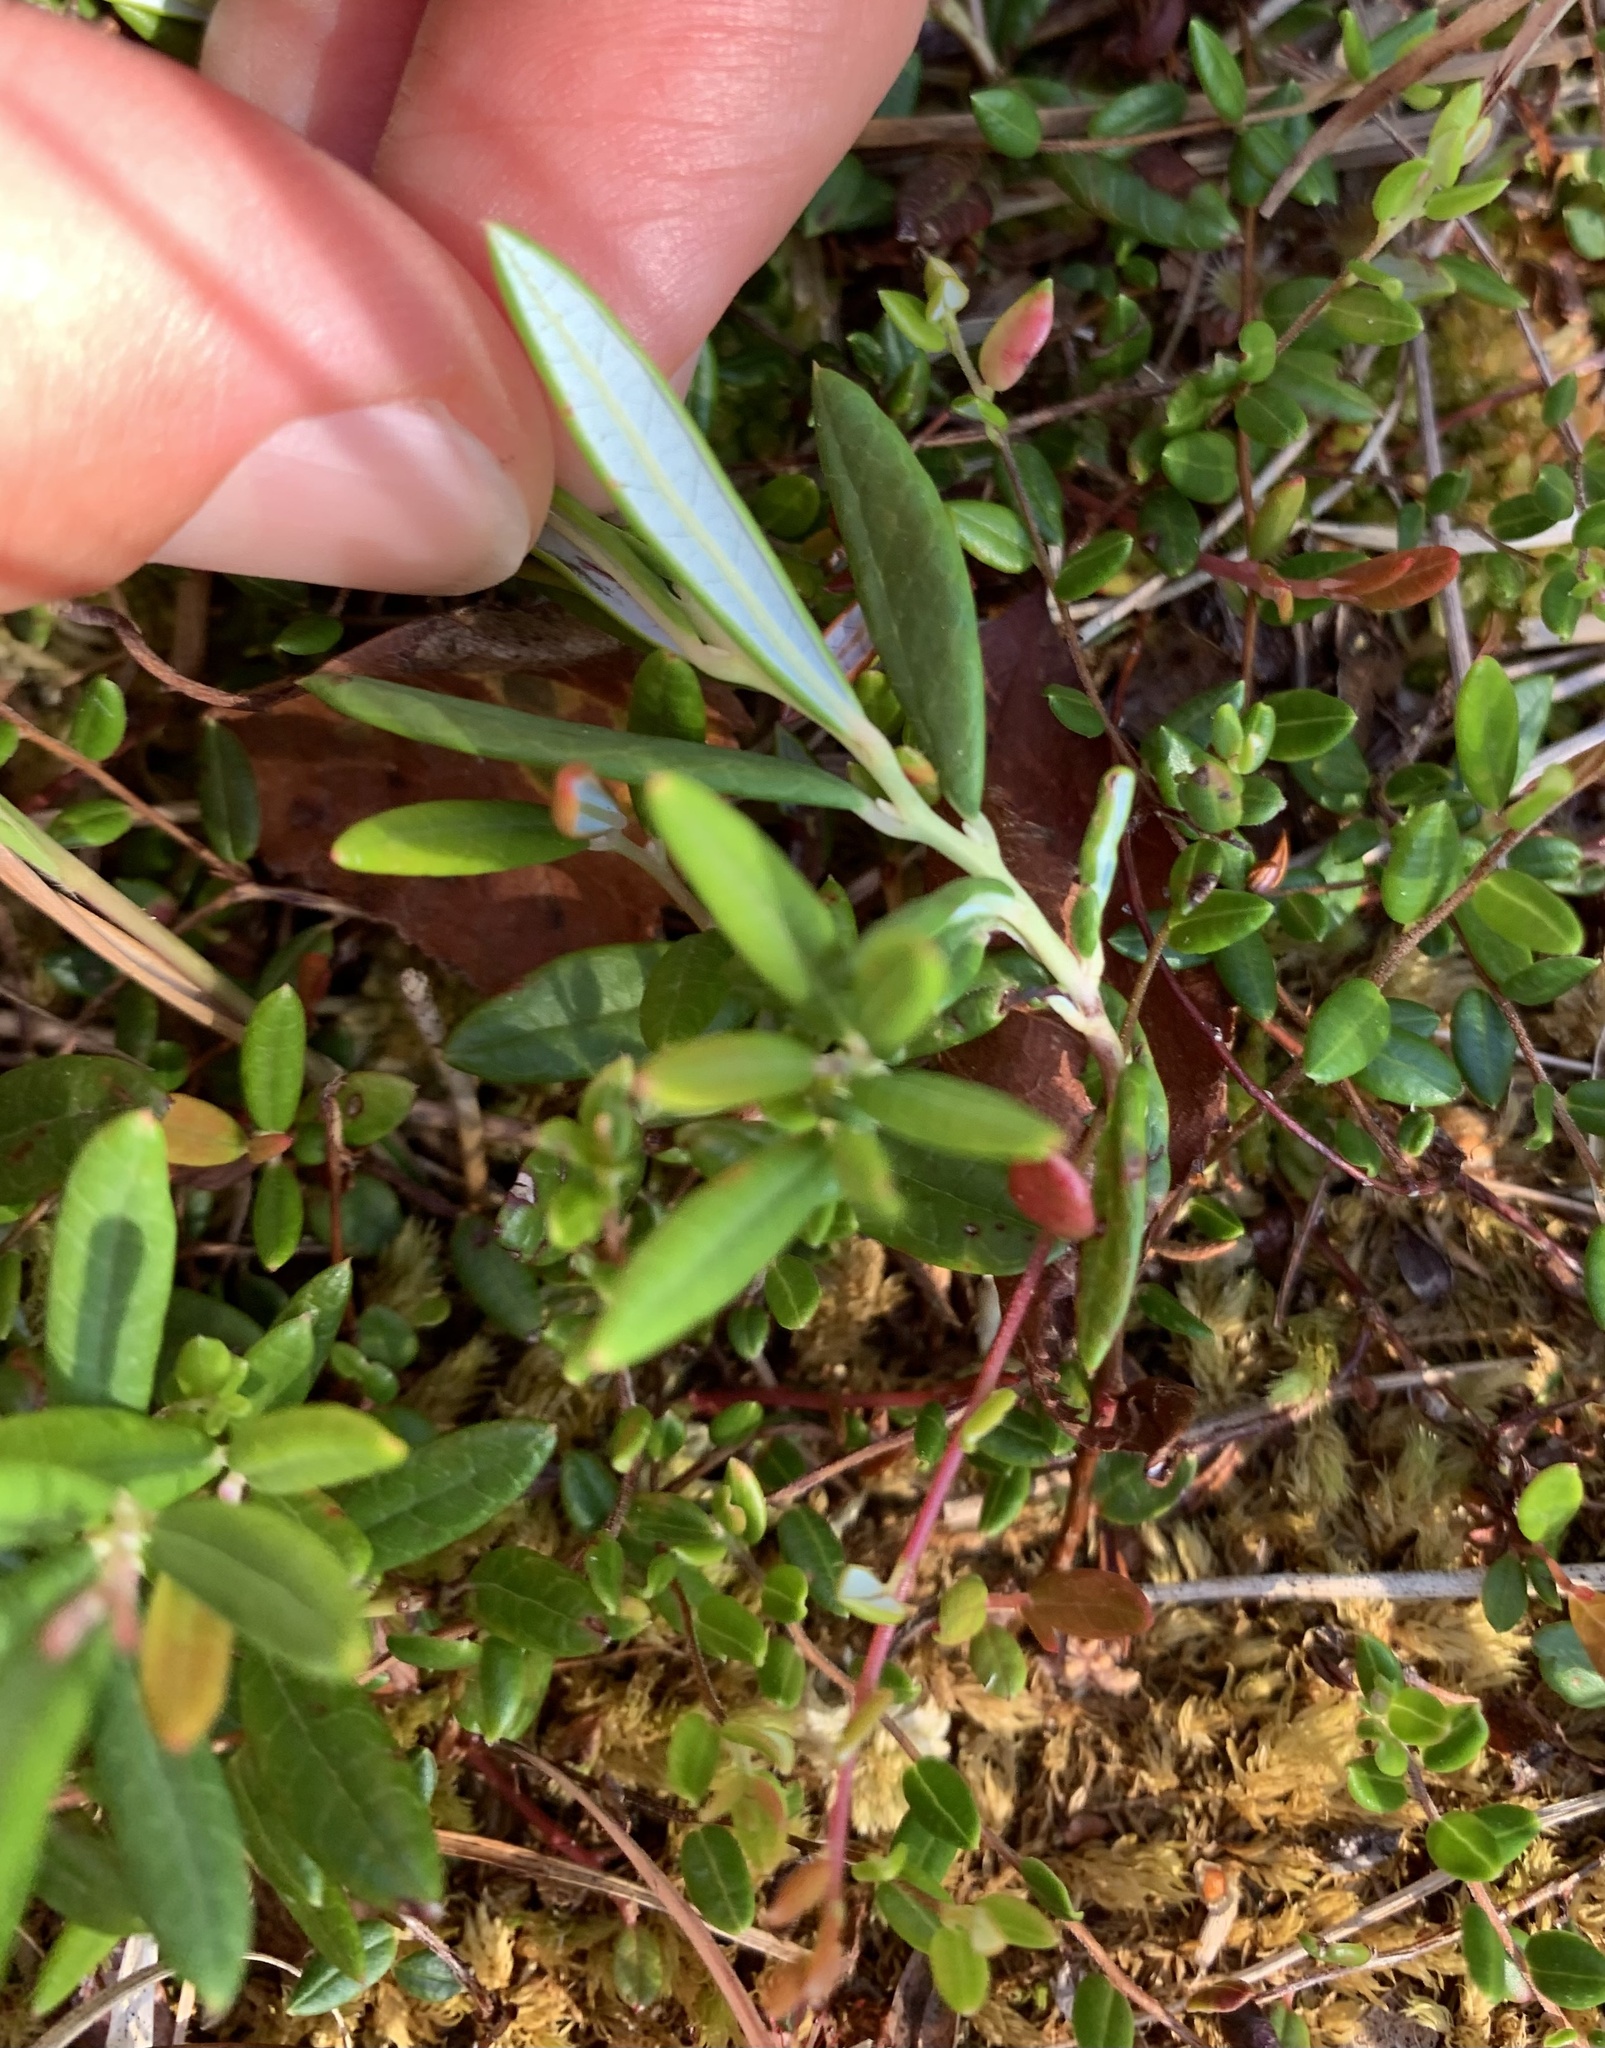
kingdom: Plantae
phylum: Tracheophyta
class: Magnoliopsida
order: Ericales
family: Ericaceae
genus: Andromeda
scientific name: Andromeda polifolia
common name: Bog-rosemary
